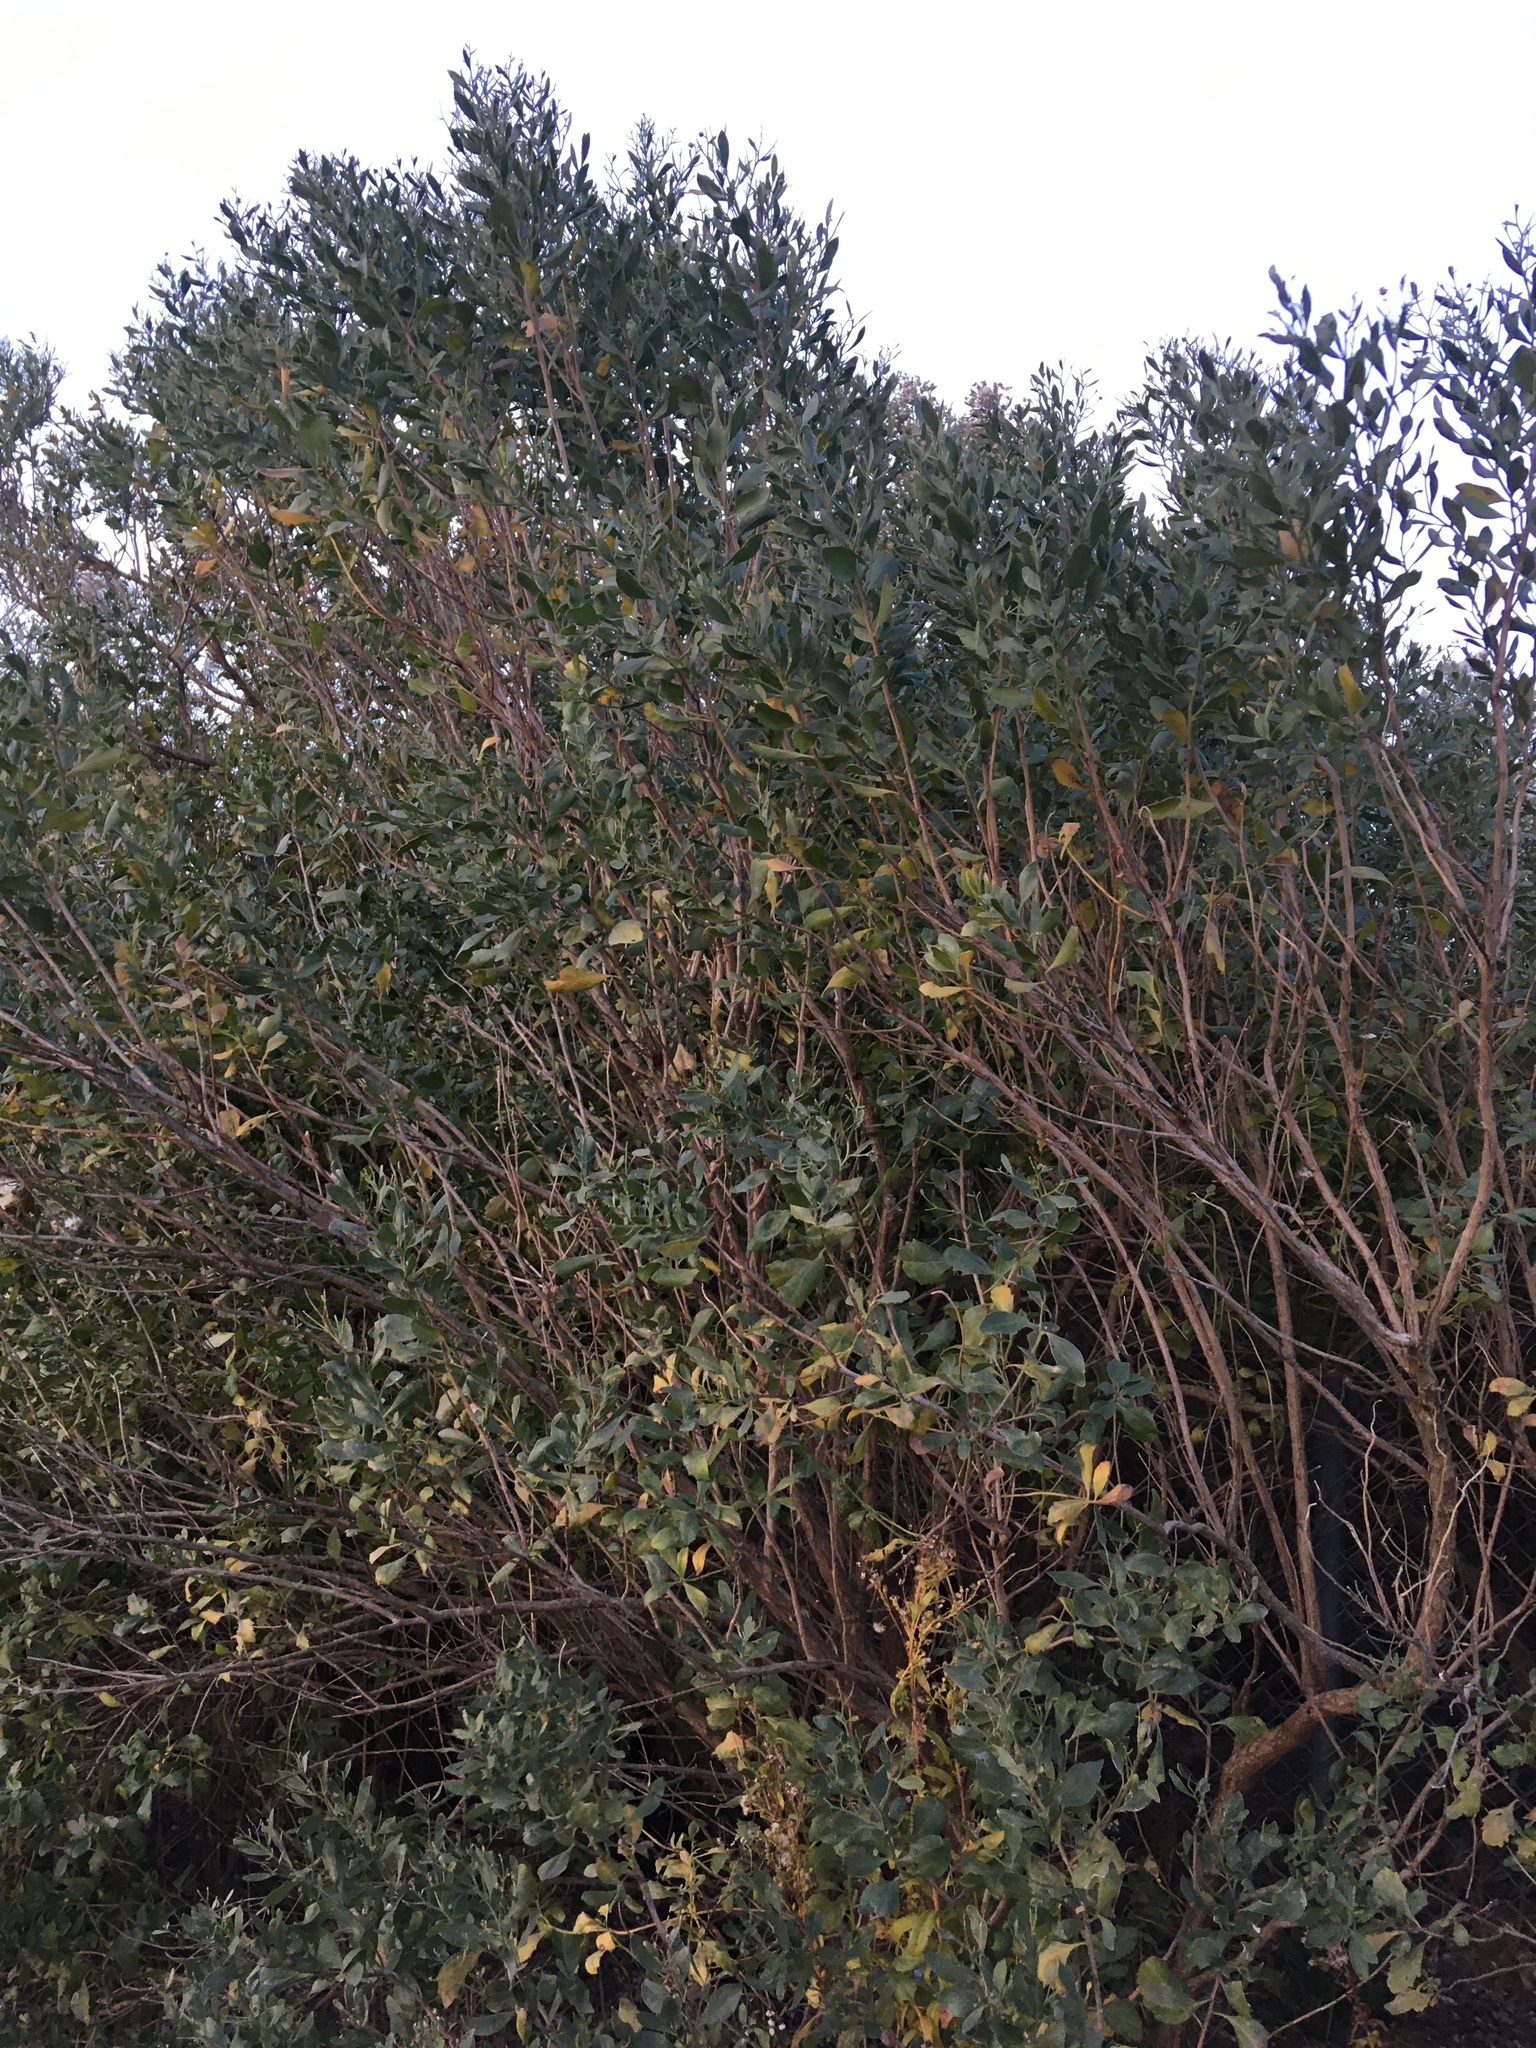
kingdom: Plantae
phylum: Tracheophyta
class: Magnoliopsida
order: Asterales
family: Asteraceae
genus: Baccharis
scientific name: Baccharis halimifolia
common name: Eastern baccharis
